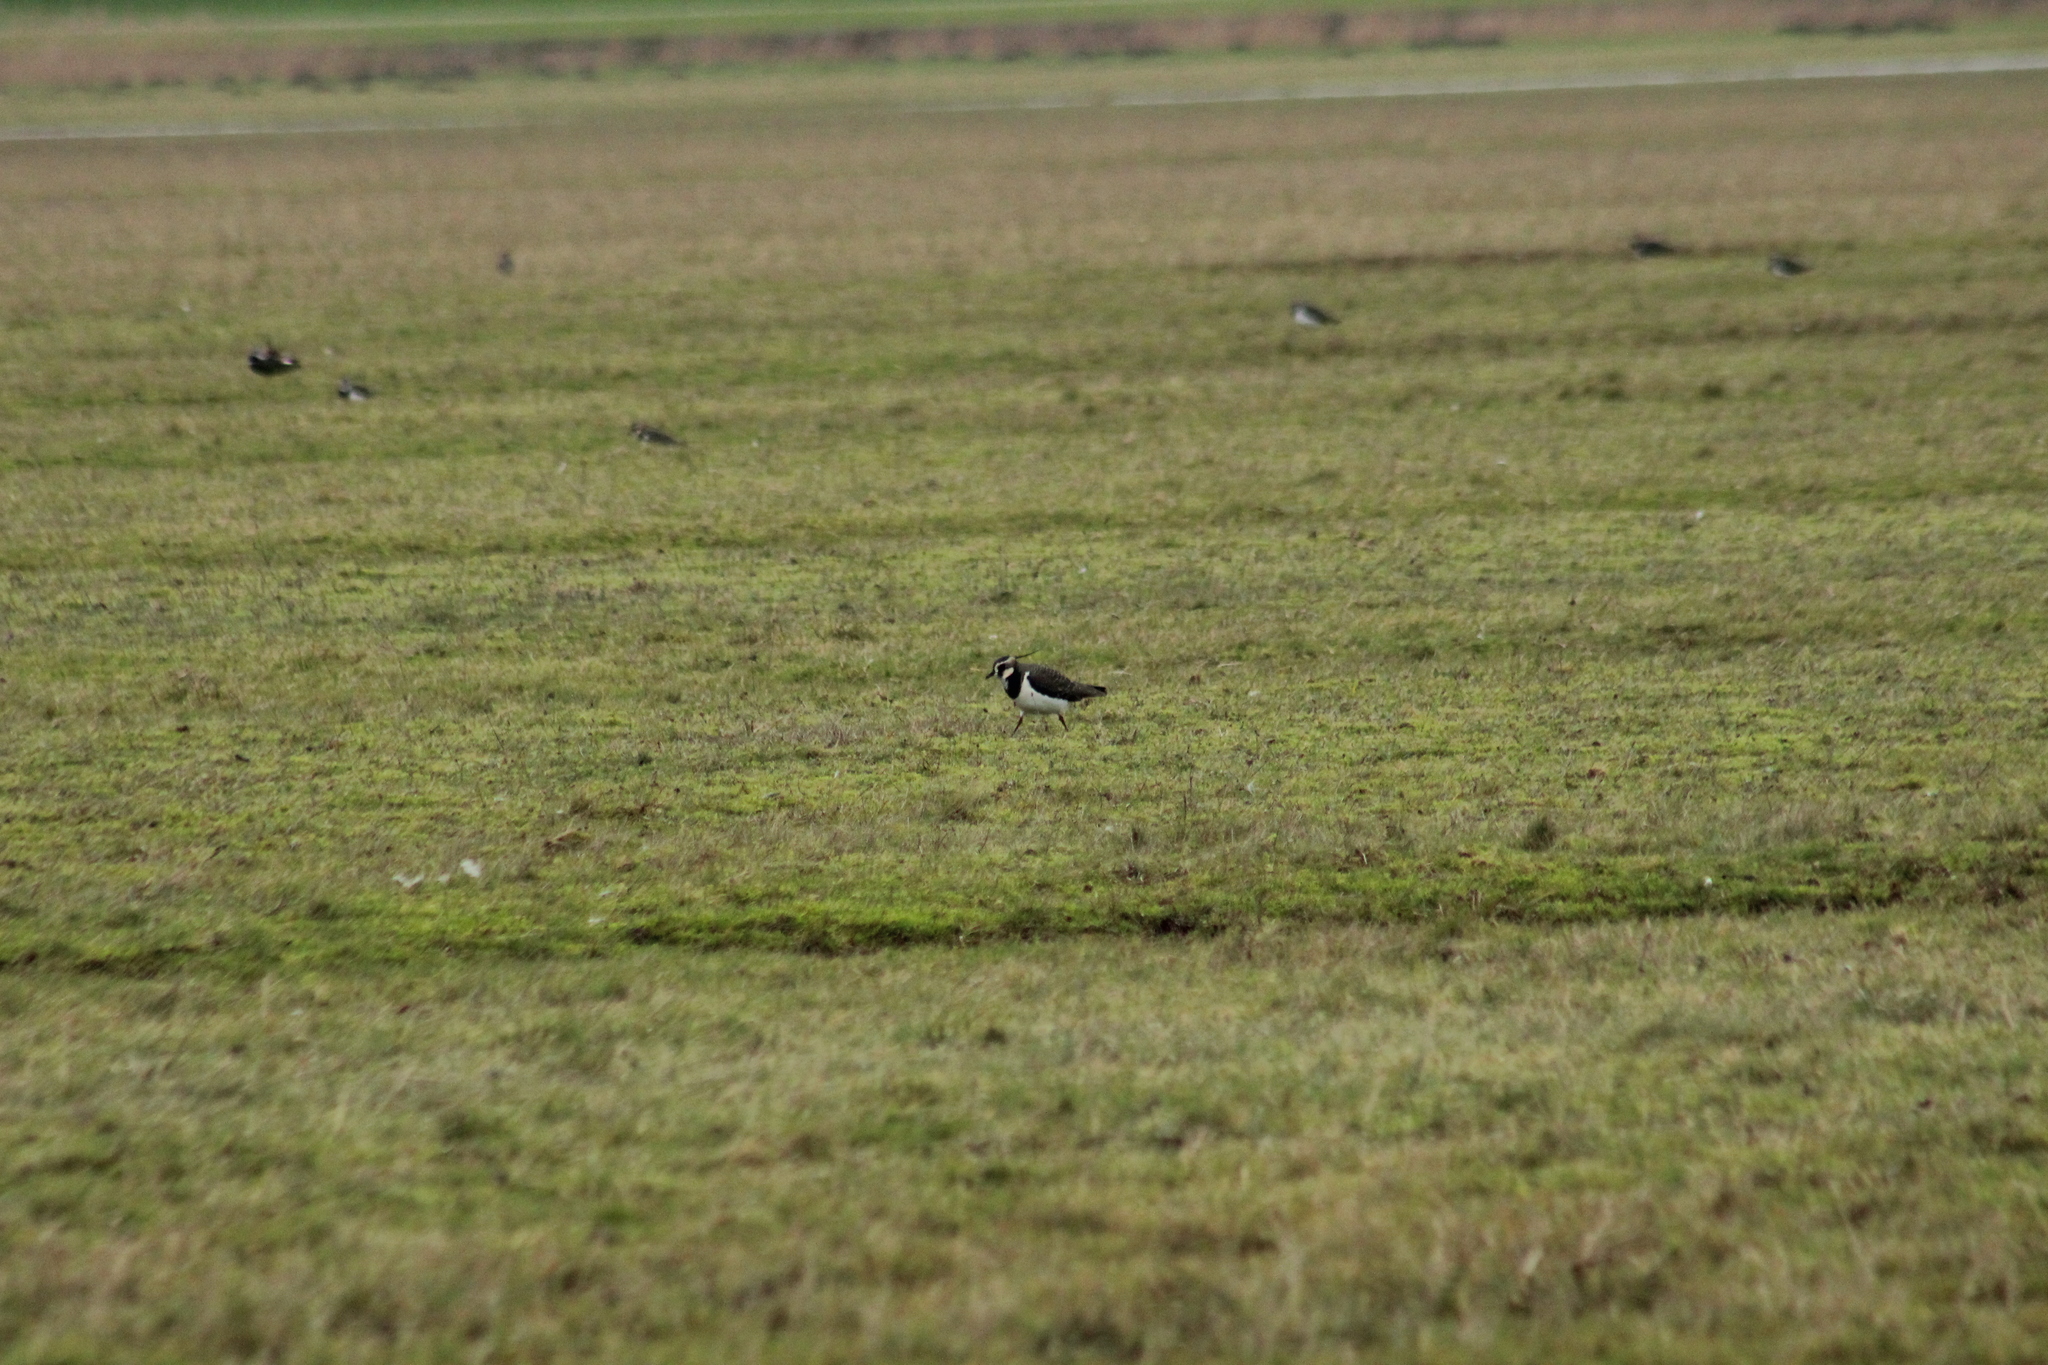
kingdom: Animalia
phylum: Chordata
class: Aves
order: Charadriiformes
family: Charadriidae
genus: Vanellus
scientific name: Vanellus vanellus
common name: Northern lapwing
